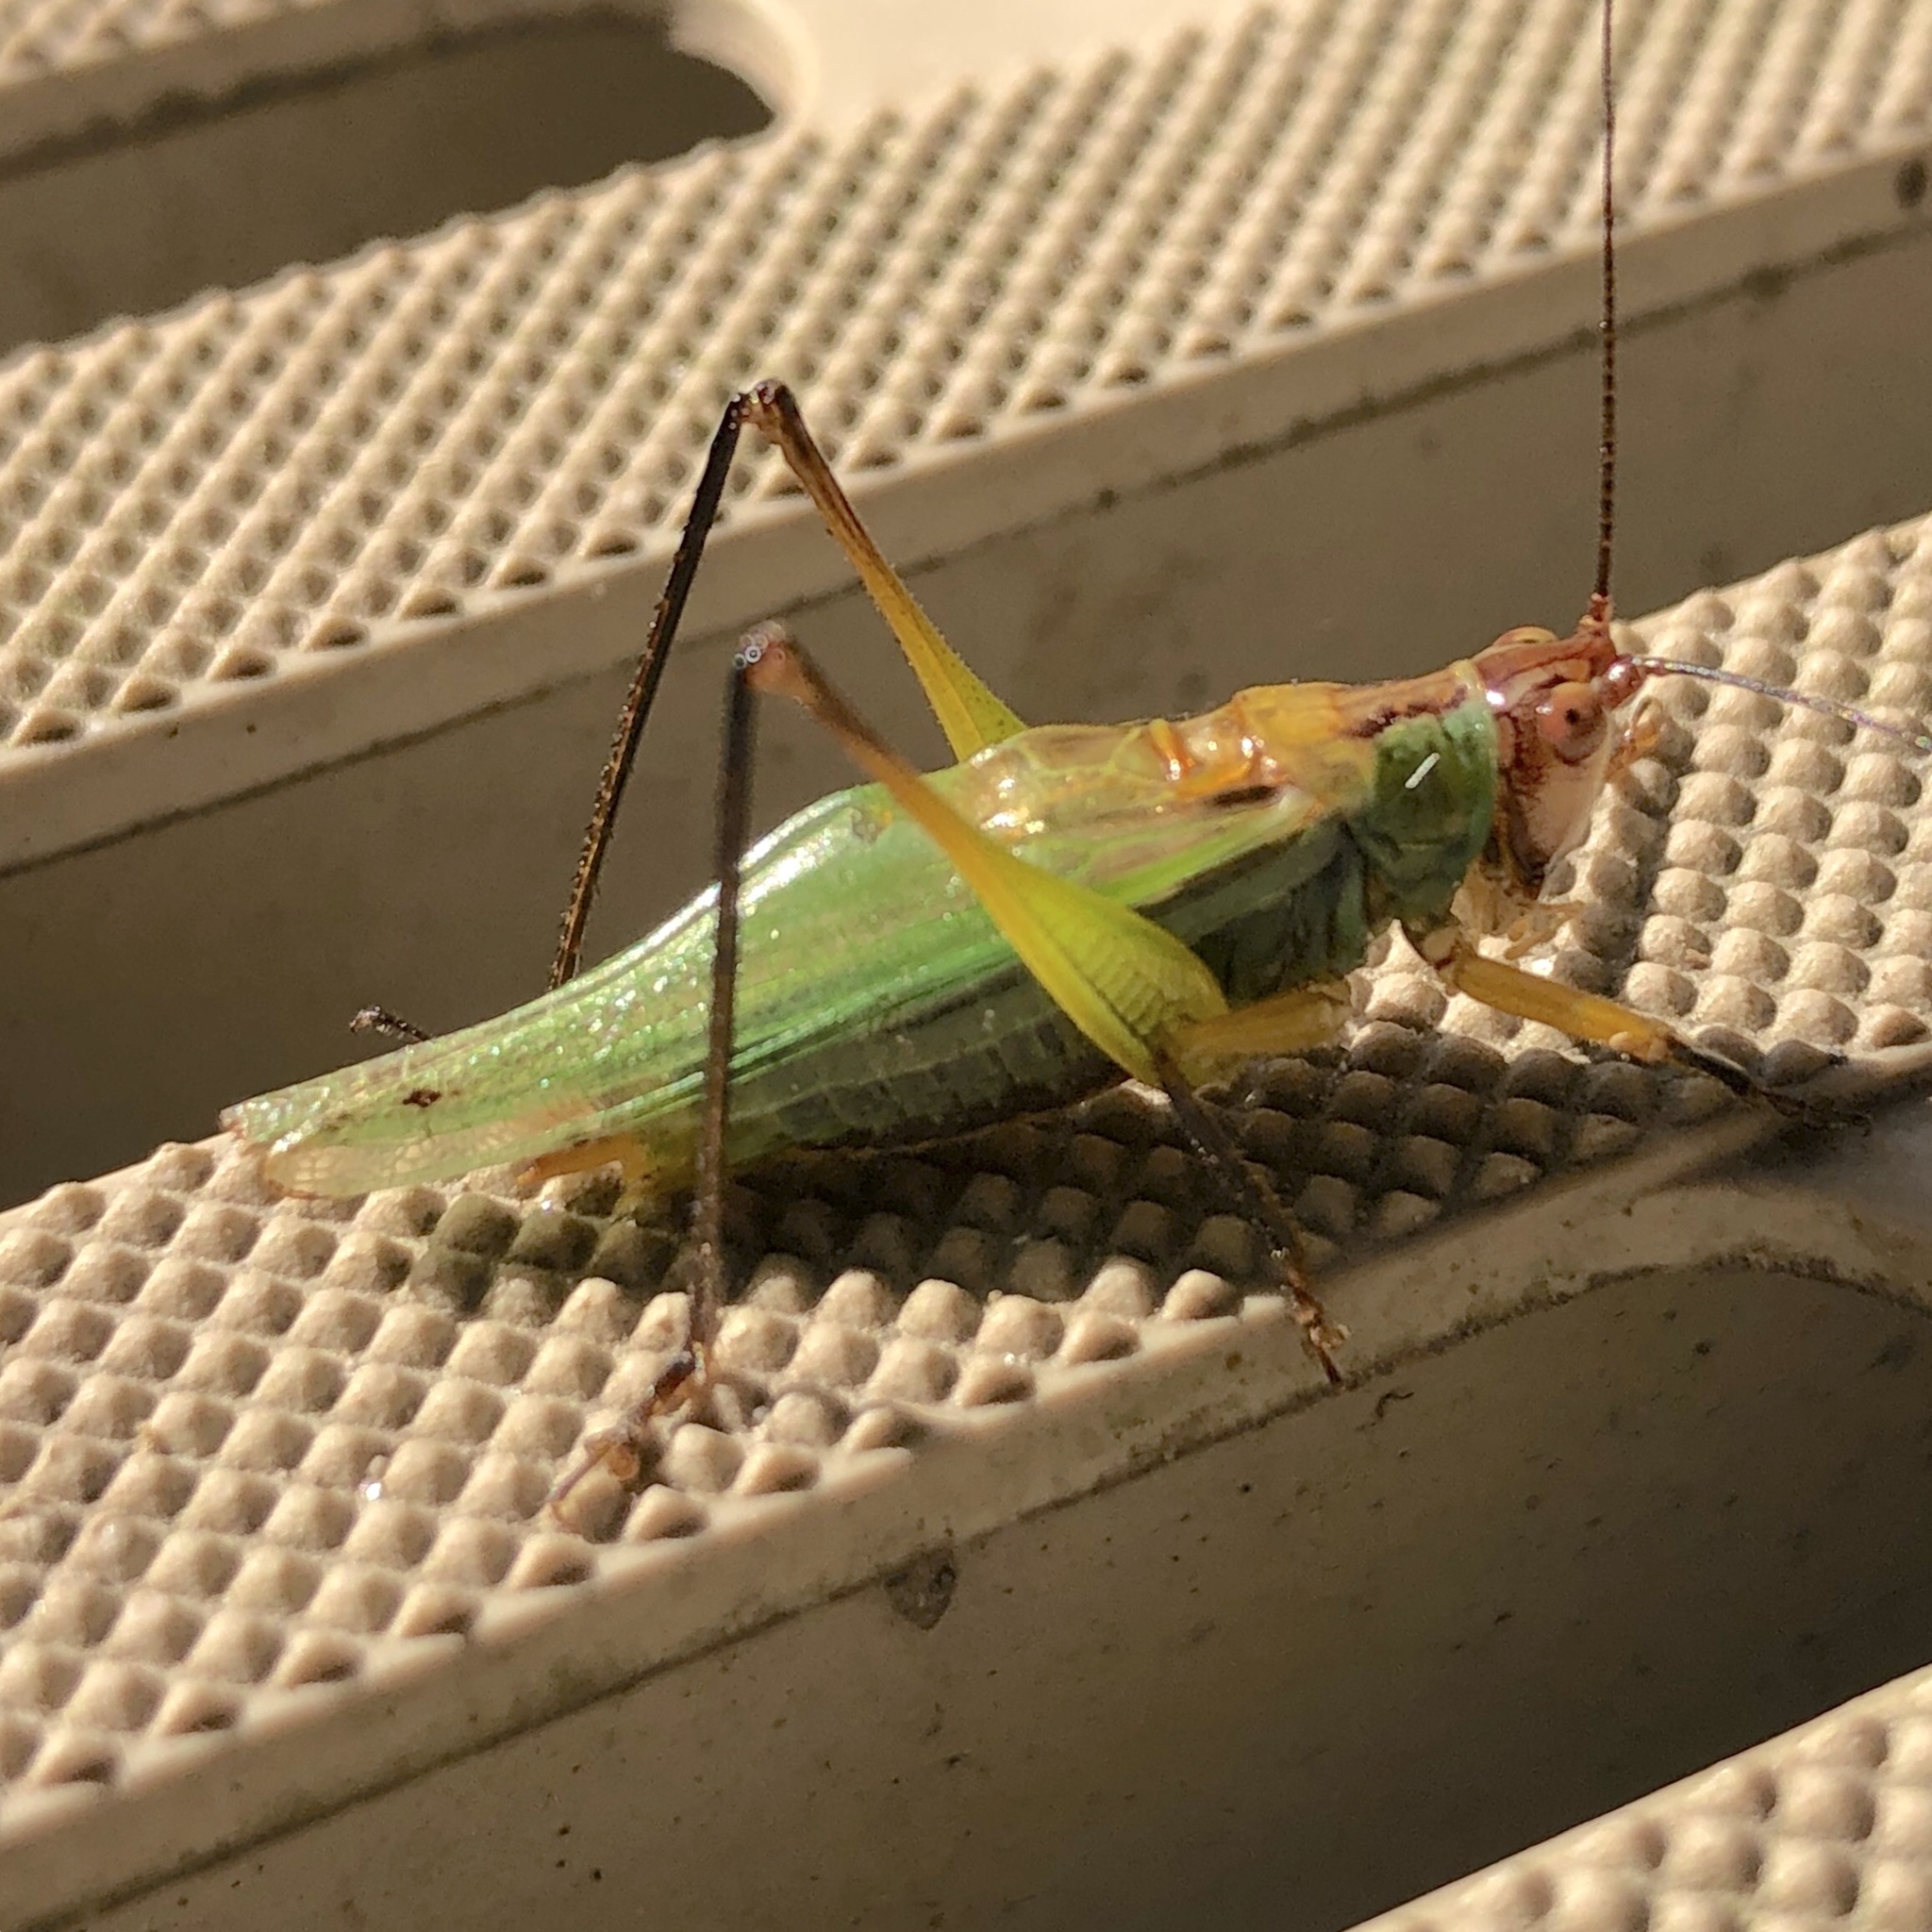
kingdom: Animalia
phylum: Arthropoda
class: Insecta
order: Orthoptera
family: Tettigoniidae
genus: Orchelimum
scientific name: Orchelimum nigripes
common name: Black-legged meadow katydid
